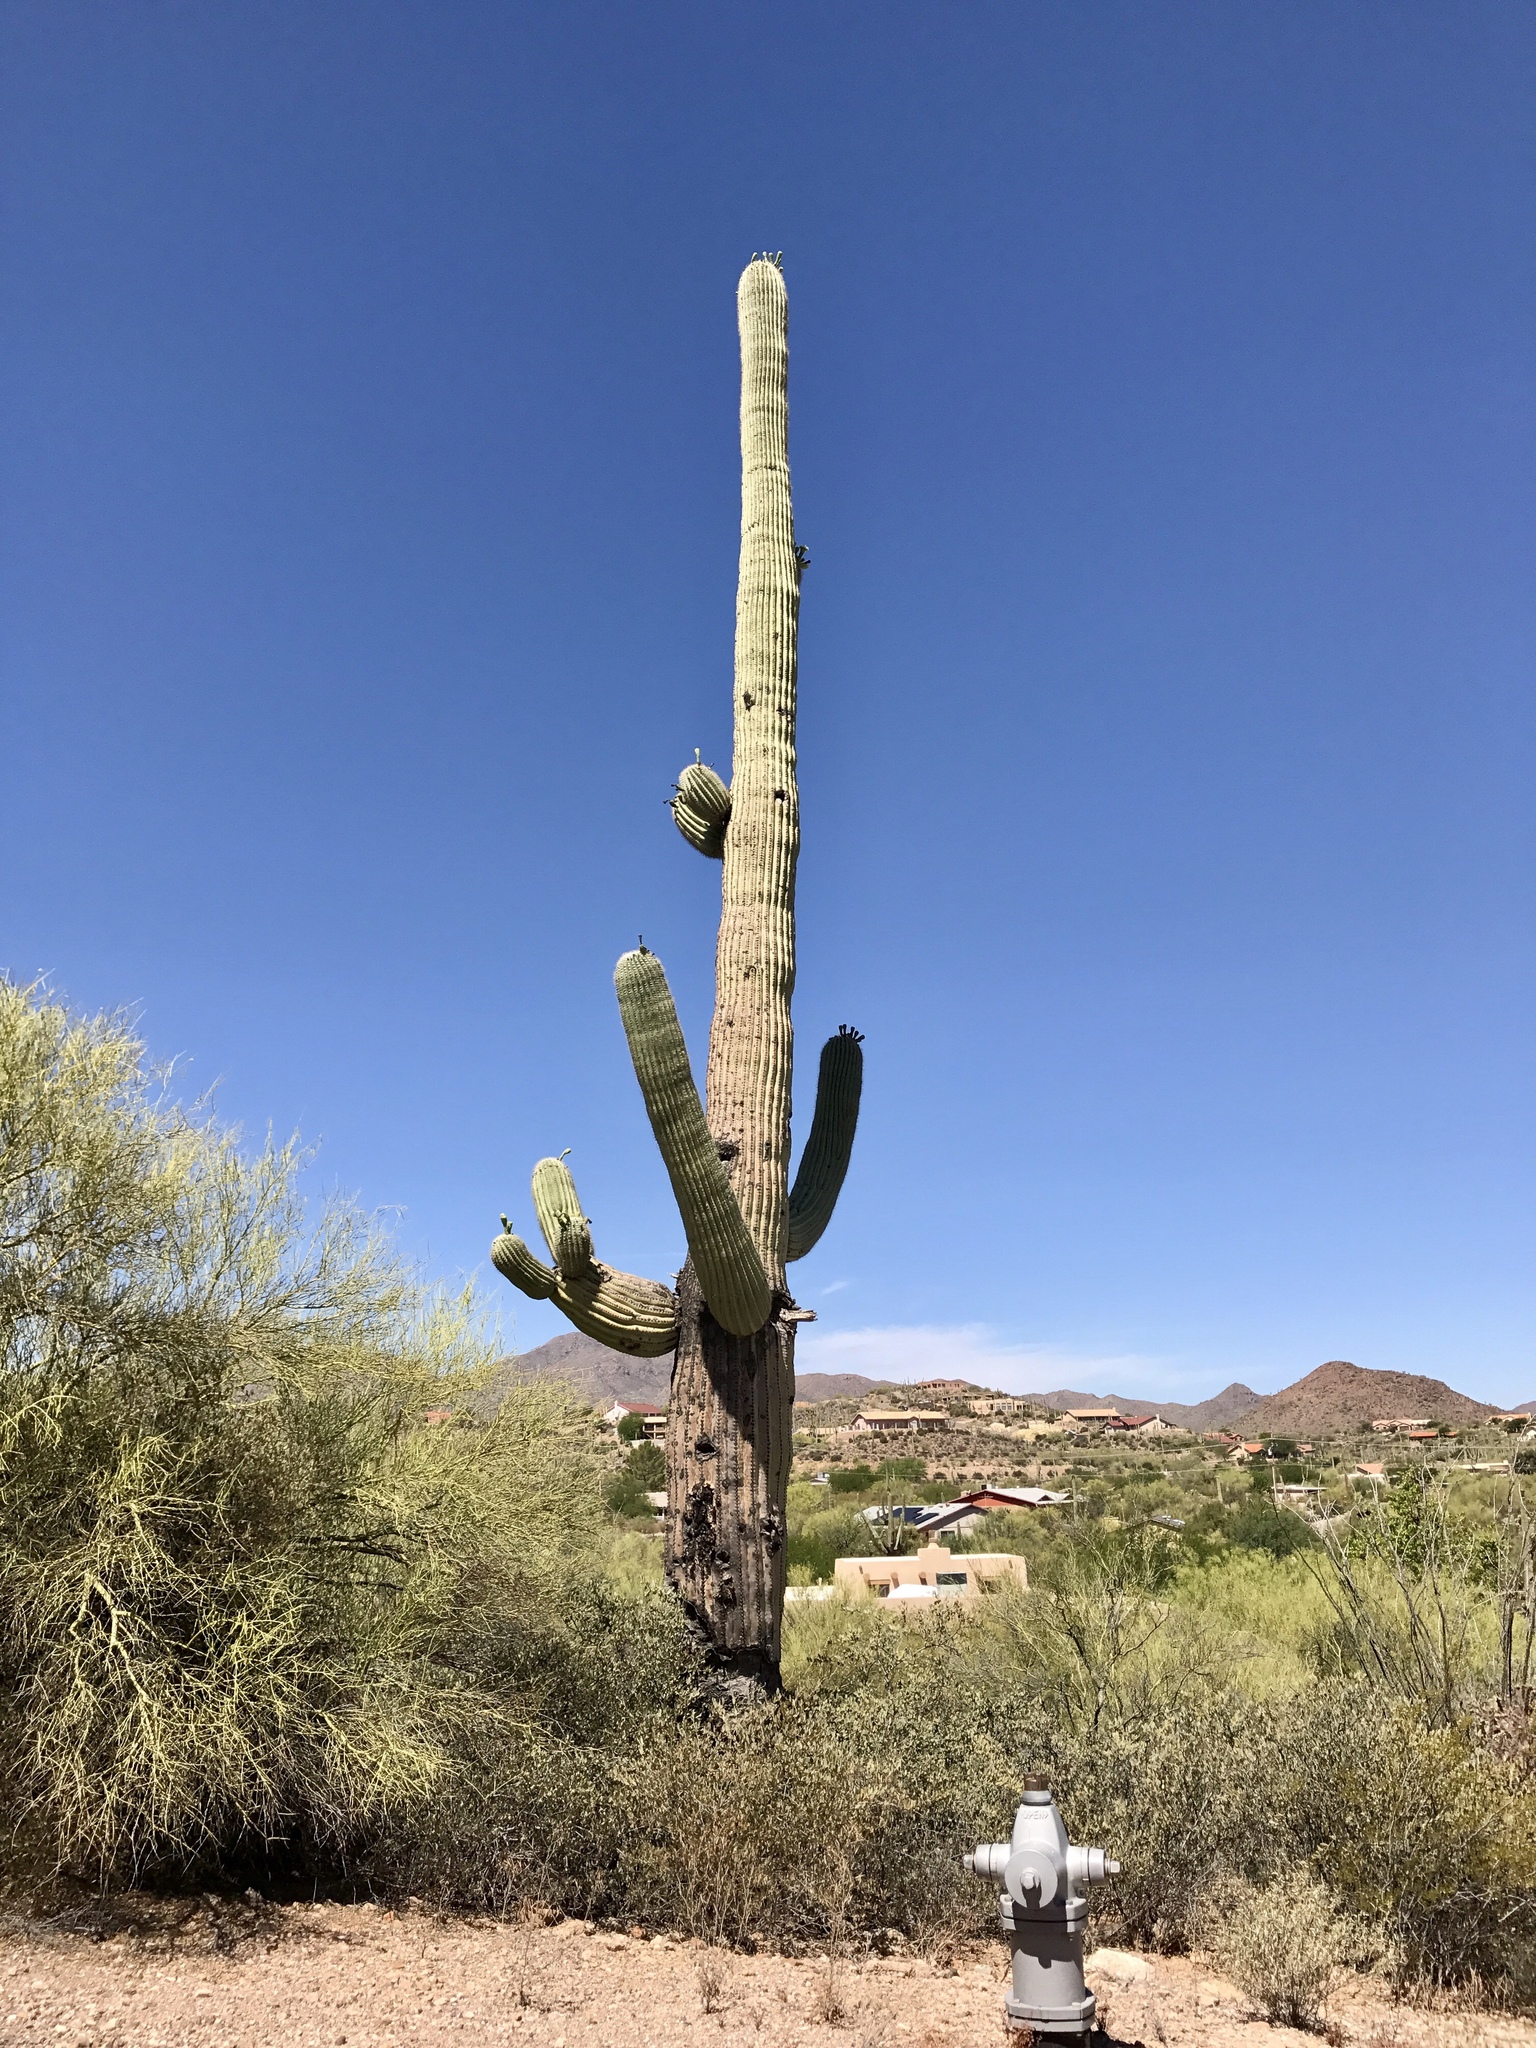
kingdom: Plantae
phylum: Tracheophyta
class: Magnoliopsida
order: Caryophyllales
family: Cactaceae
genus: Carnegiea
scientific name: Carnegiea gigantea
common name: Saguaro
